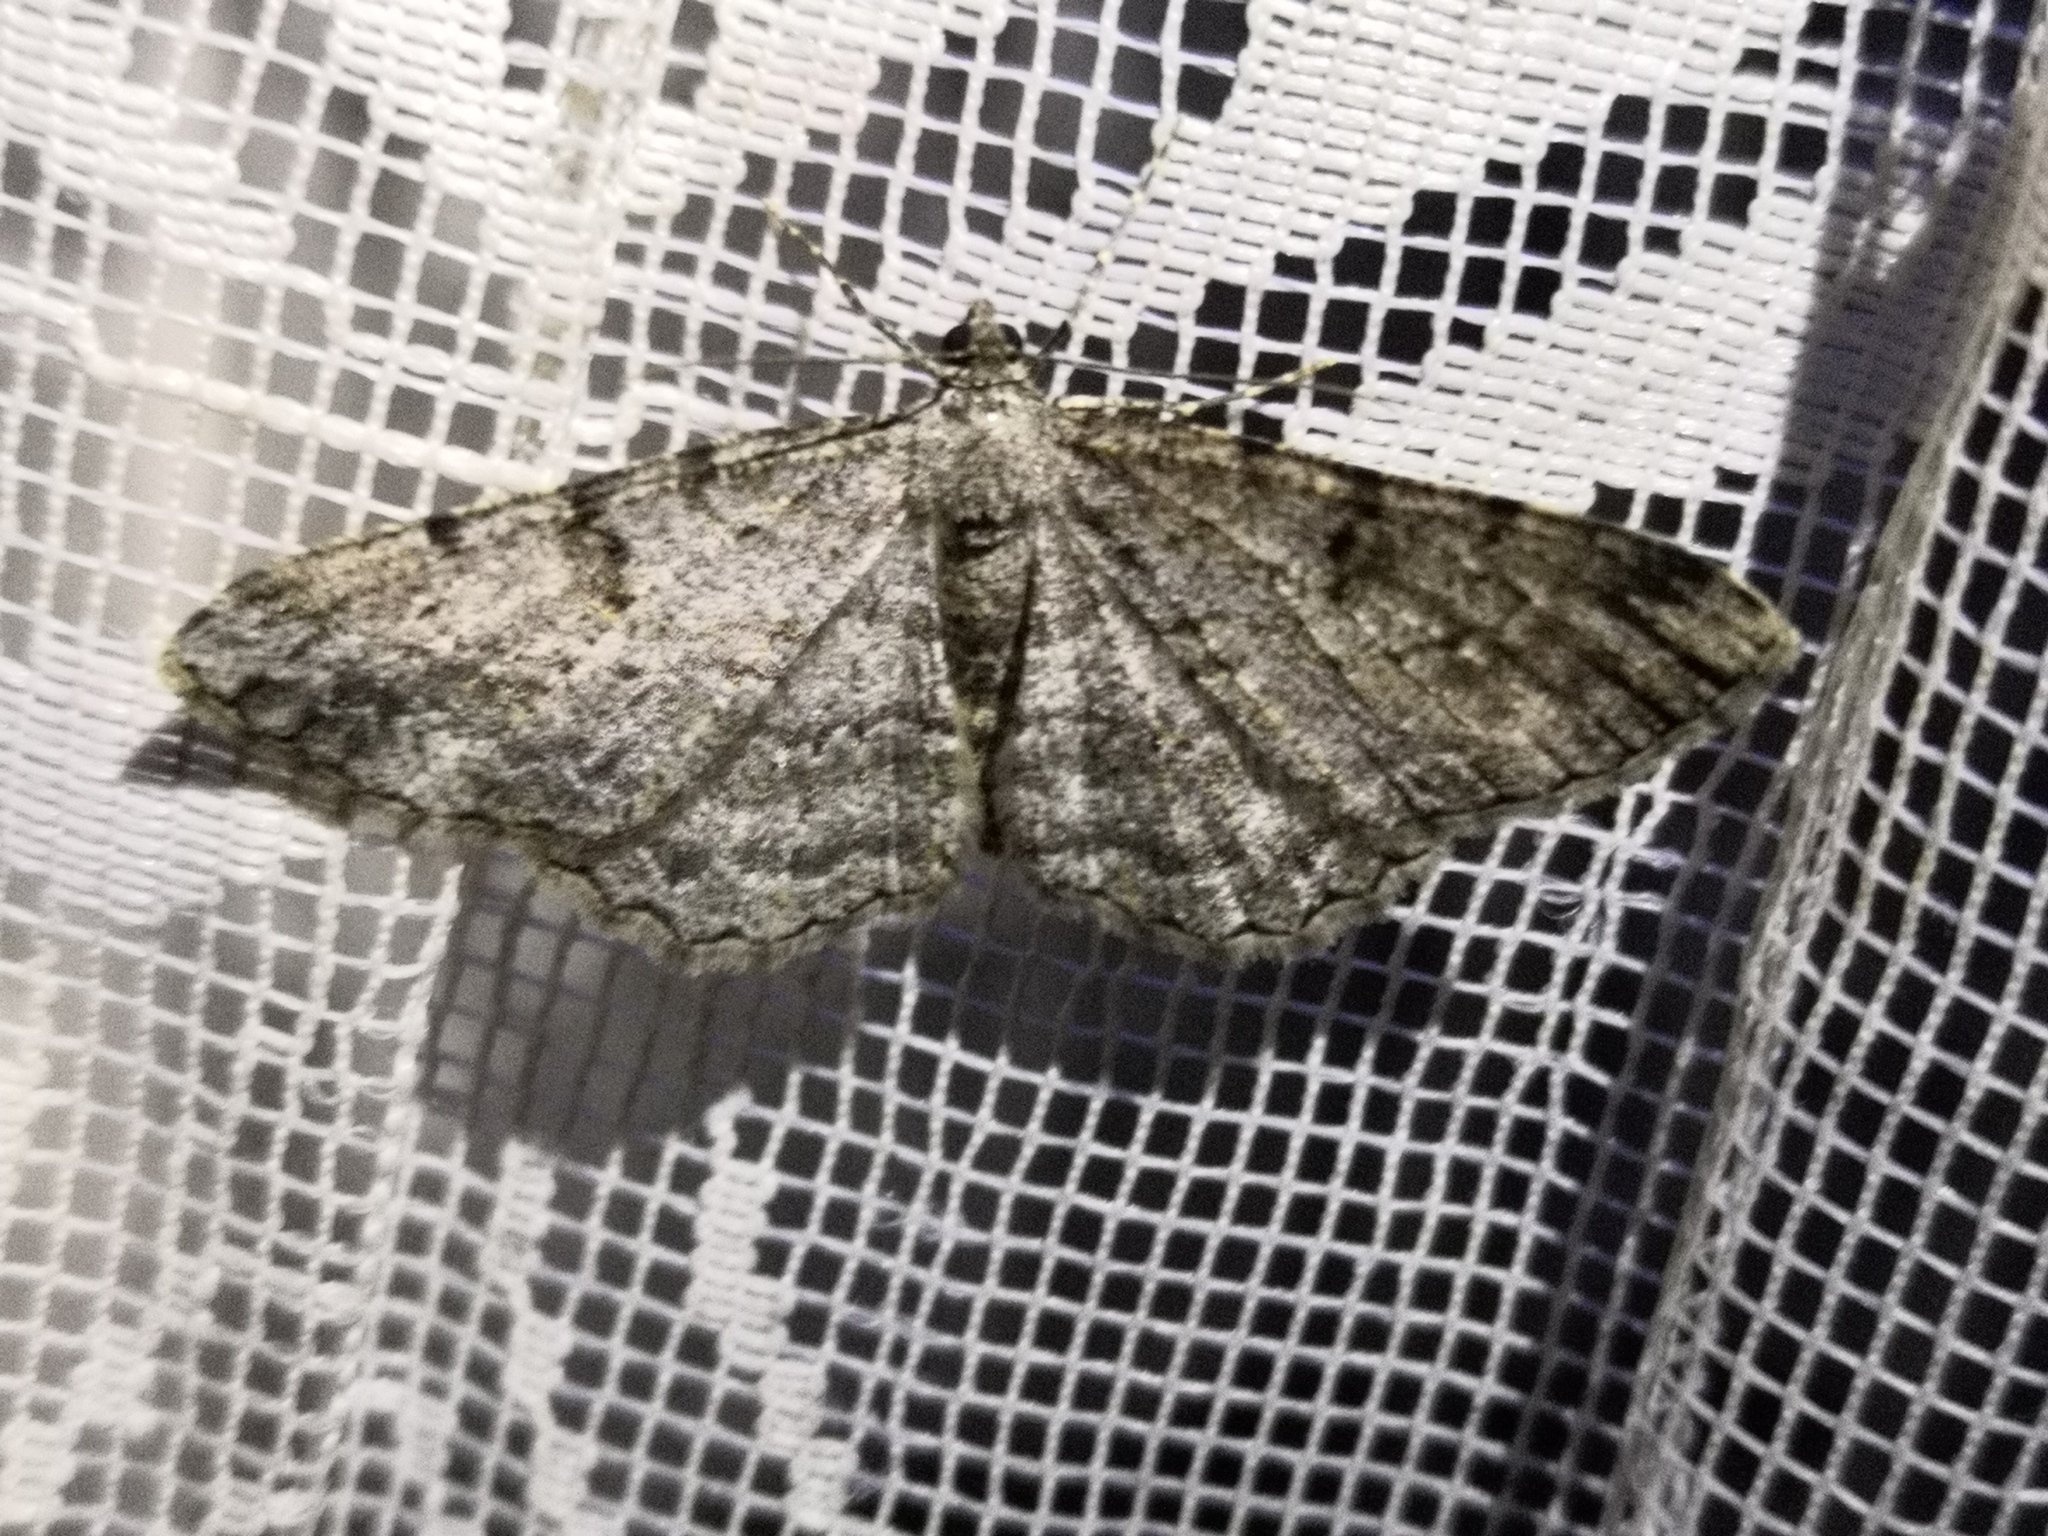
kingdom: Animalia
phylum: Arthropoda
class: Insecta
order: Lepidoptera
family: Geometridae
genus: Peribatodes
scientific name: Peribatodes rhomboidaria
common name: Willow beauty
